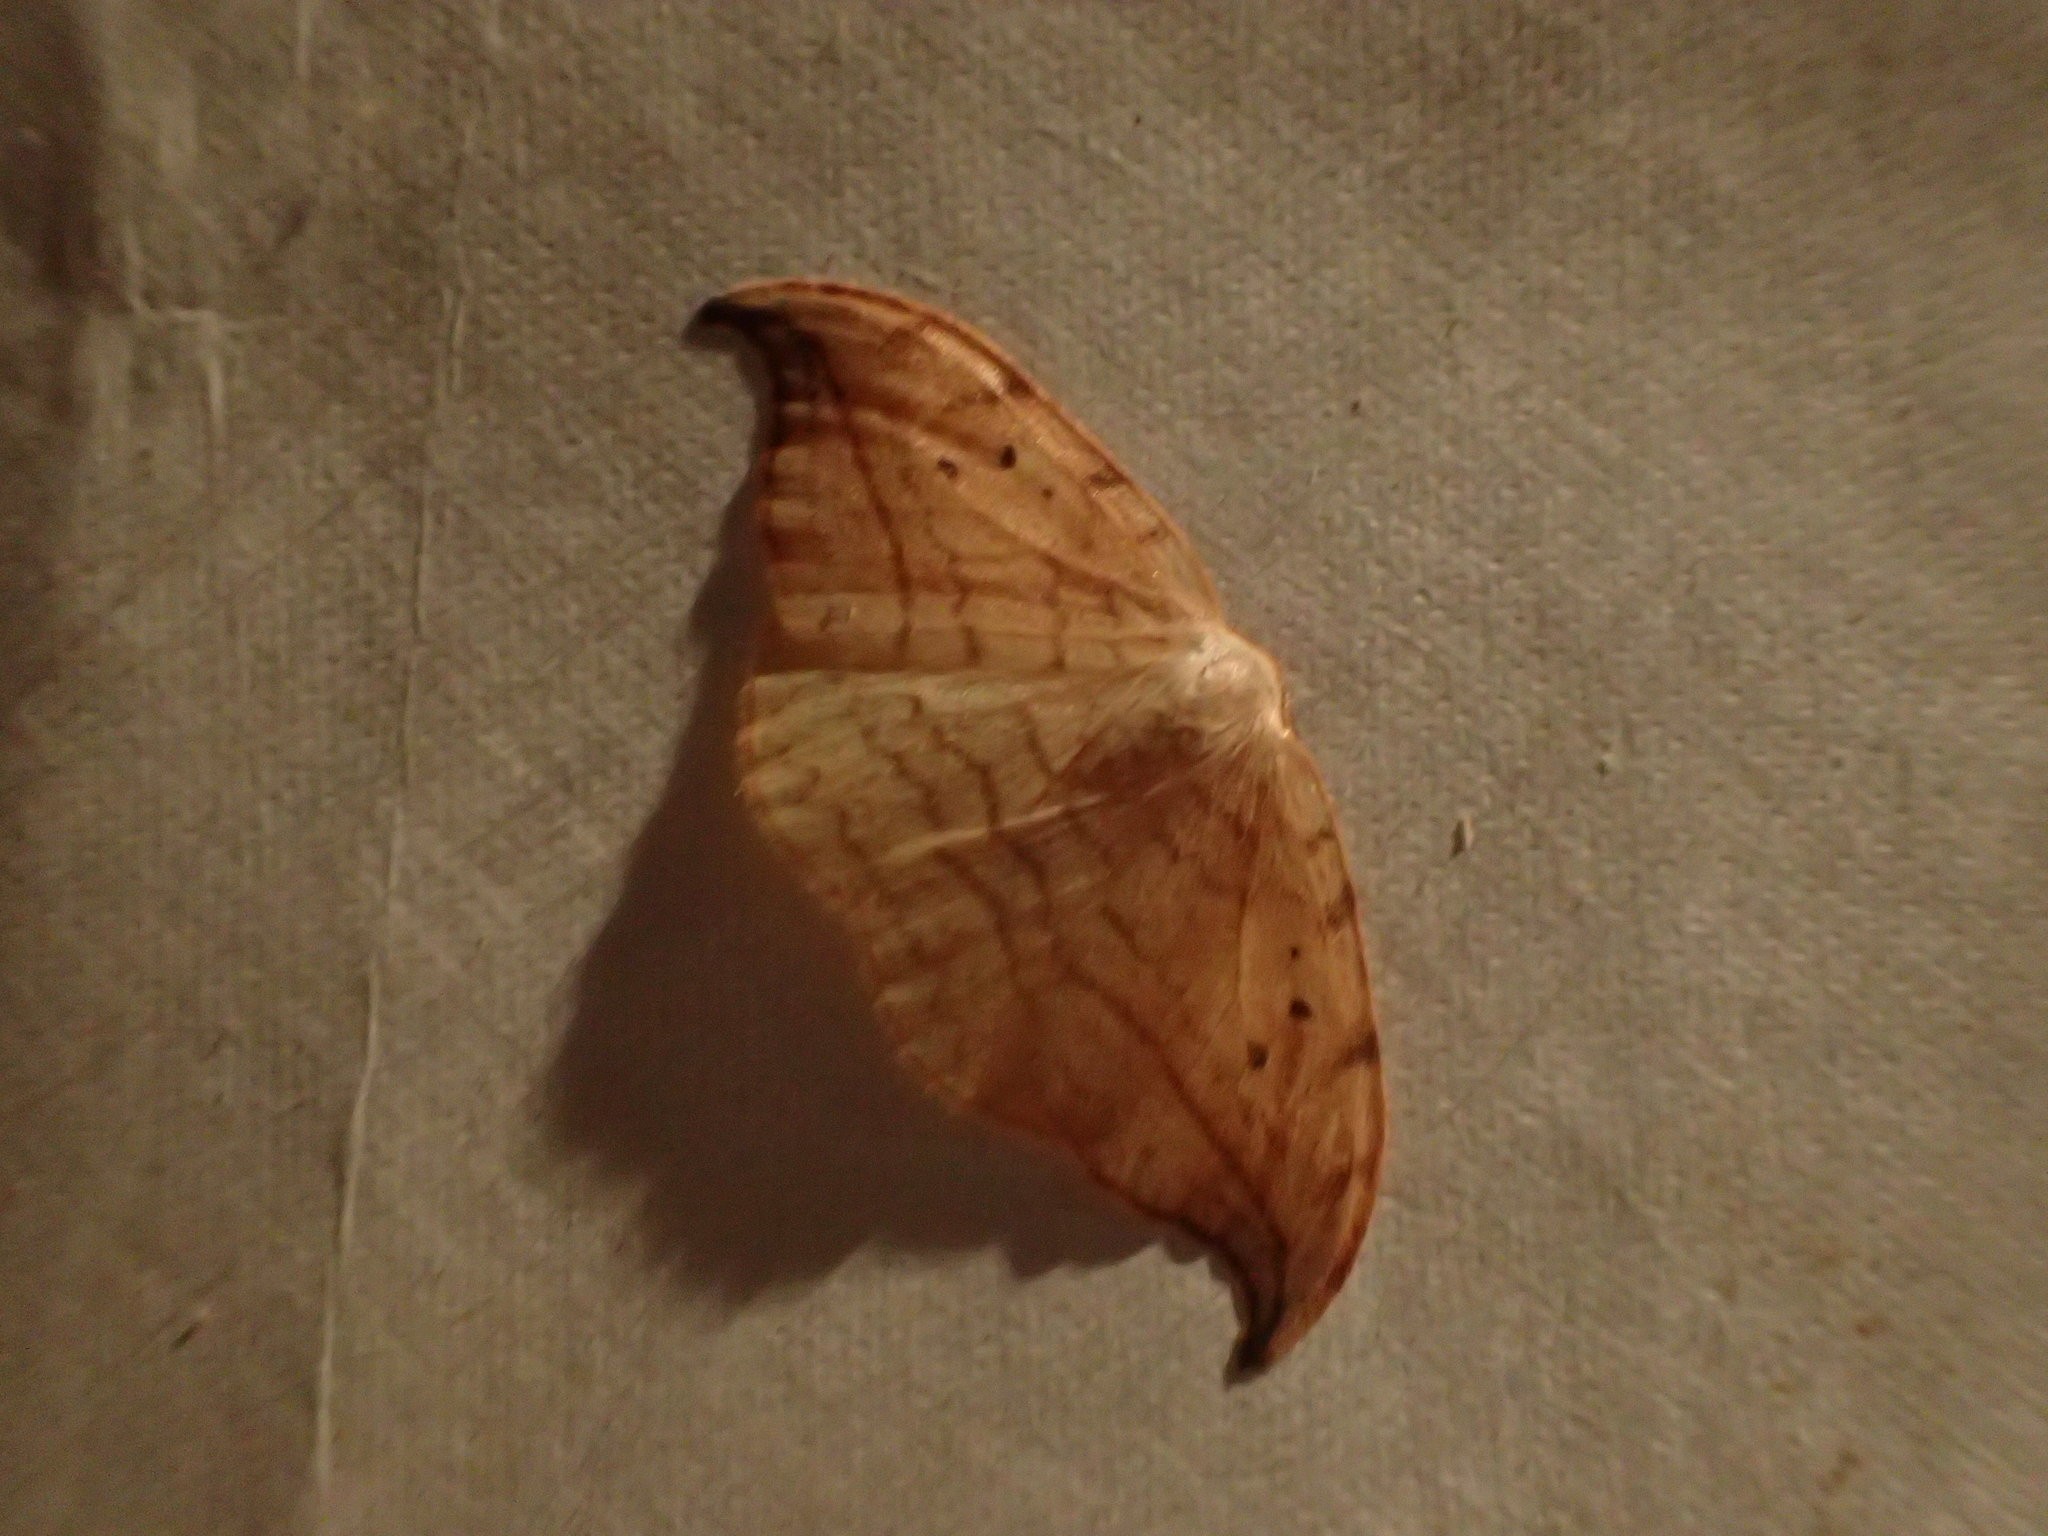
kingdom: Animalia
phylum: Arthropoda
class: Insecta
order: Lepidoptera
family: Drepanidae
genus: Drepana
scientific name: Drepana arcuata
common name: Arched hooktip moth
